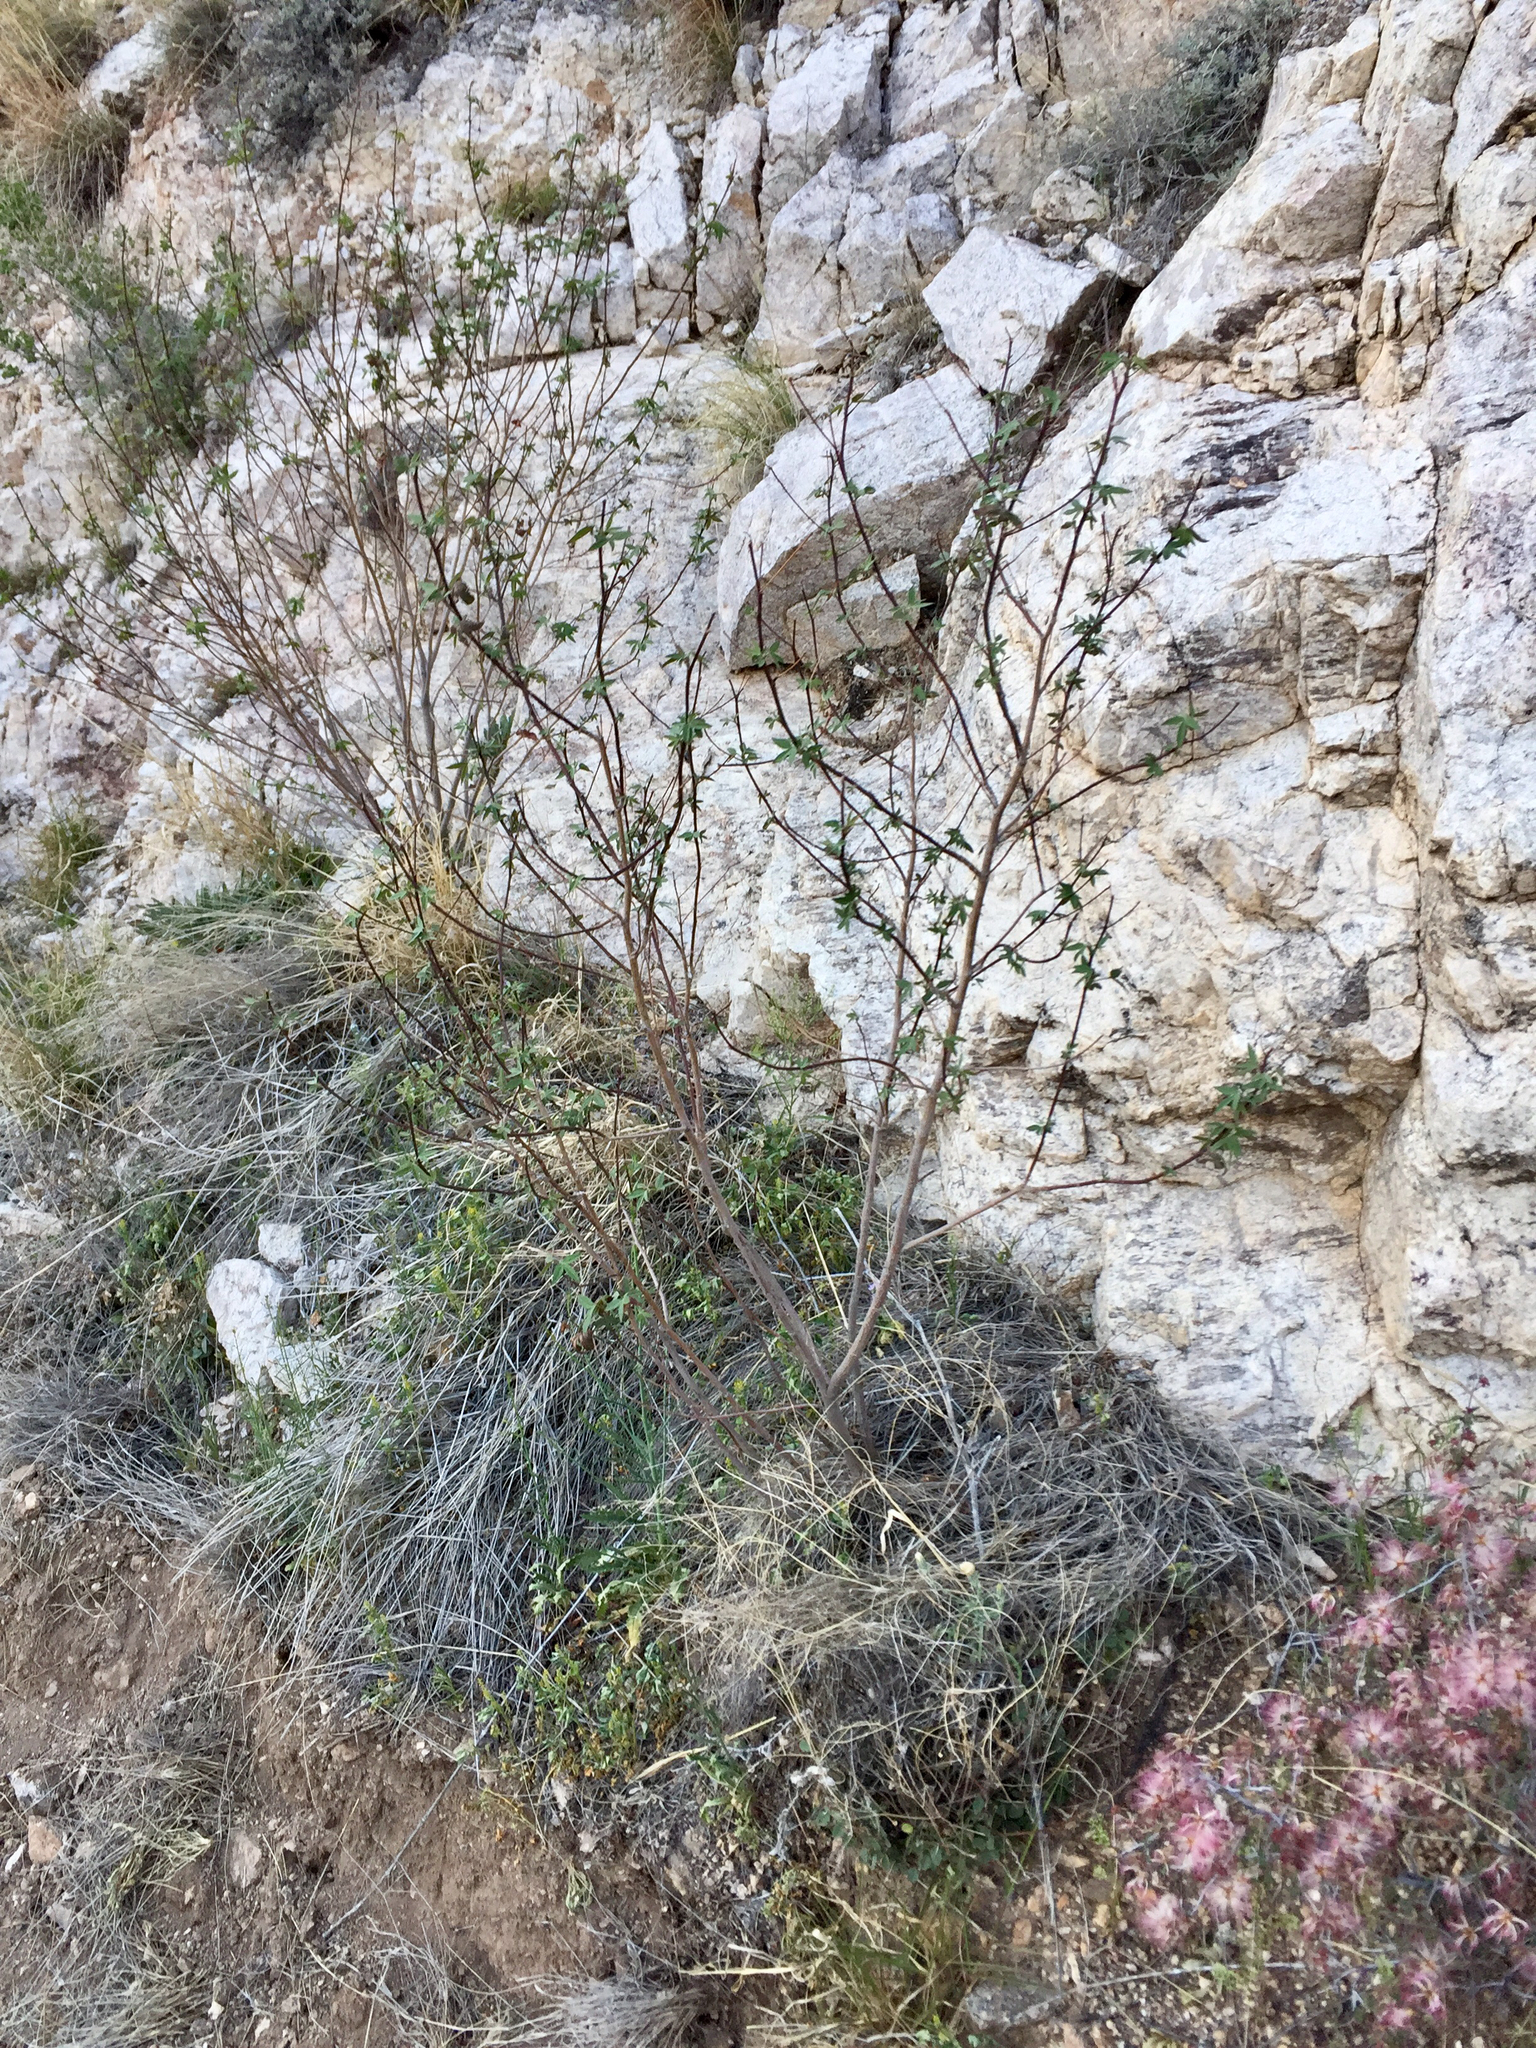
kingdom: Plantae
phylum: Tracheophyta
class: Magnoliopsida
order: Malvales
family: Malvaceae
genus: Gossypium
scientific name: Gossypium thurberi
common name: Desert cotton
